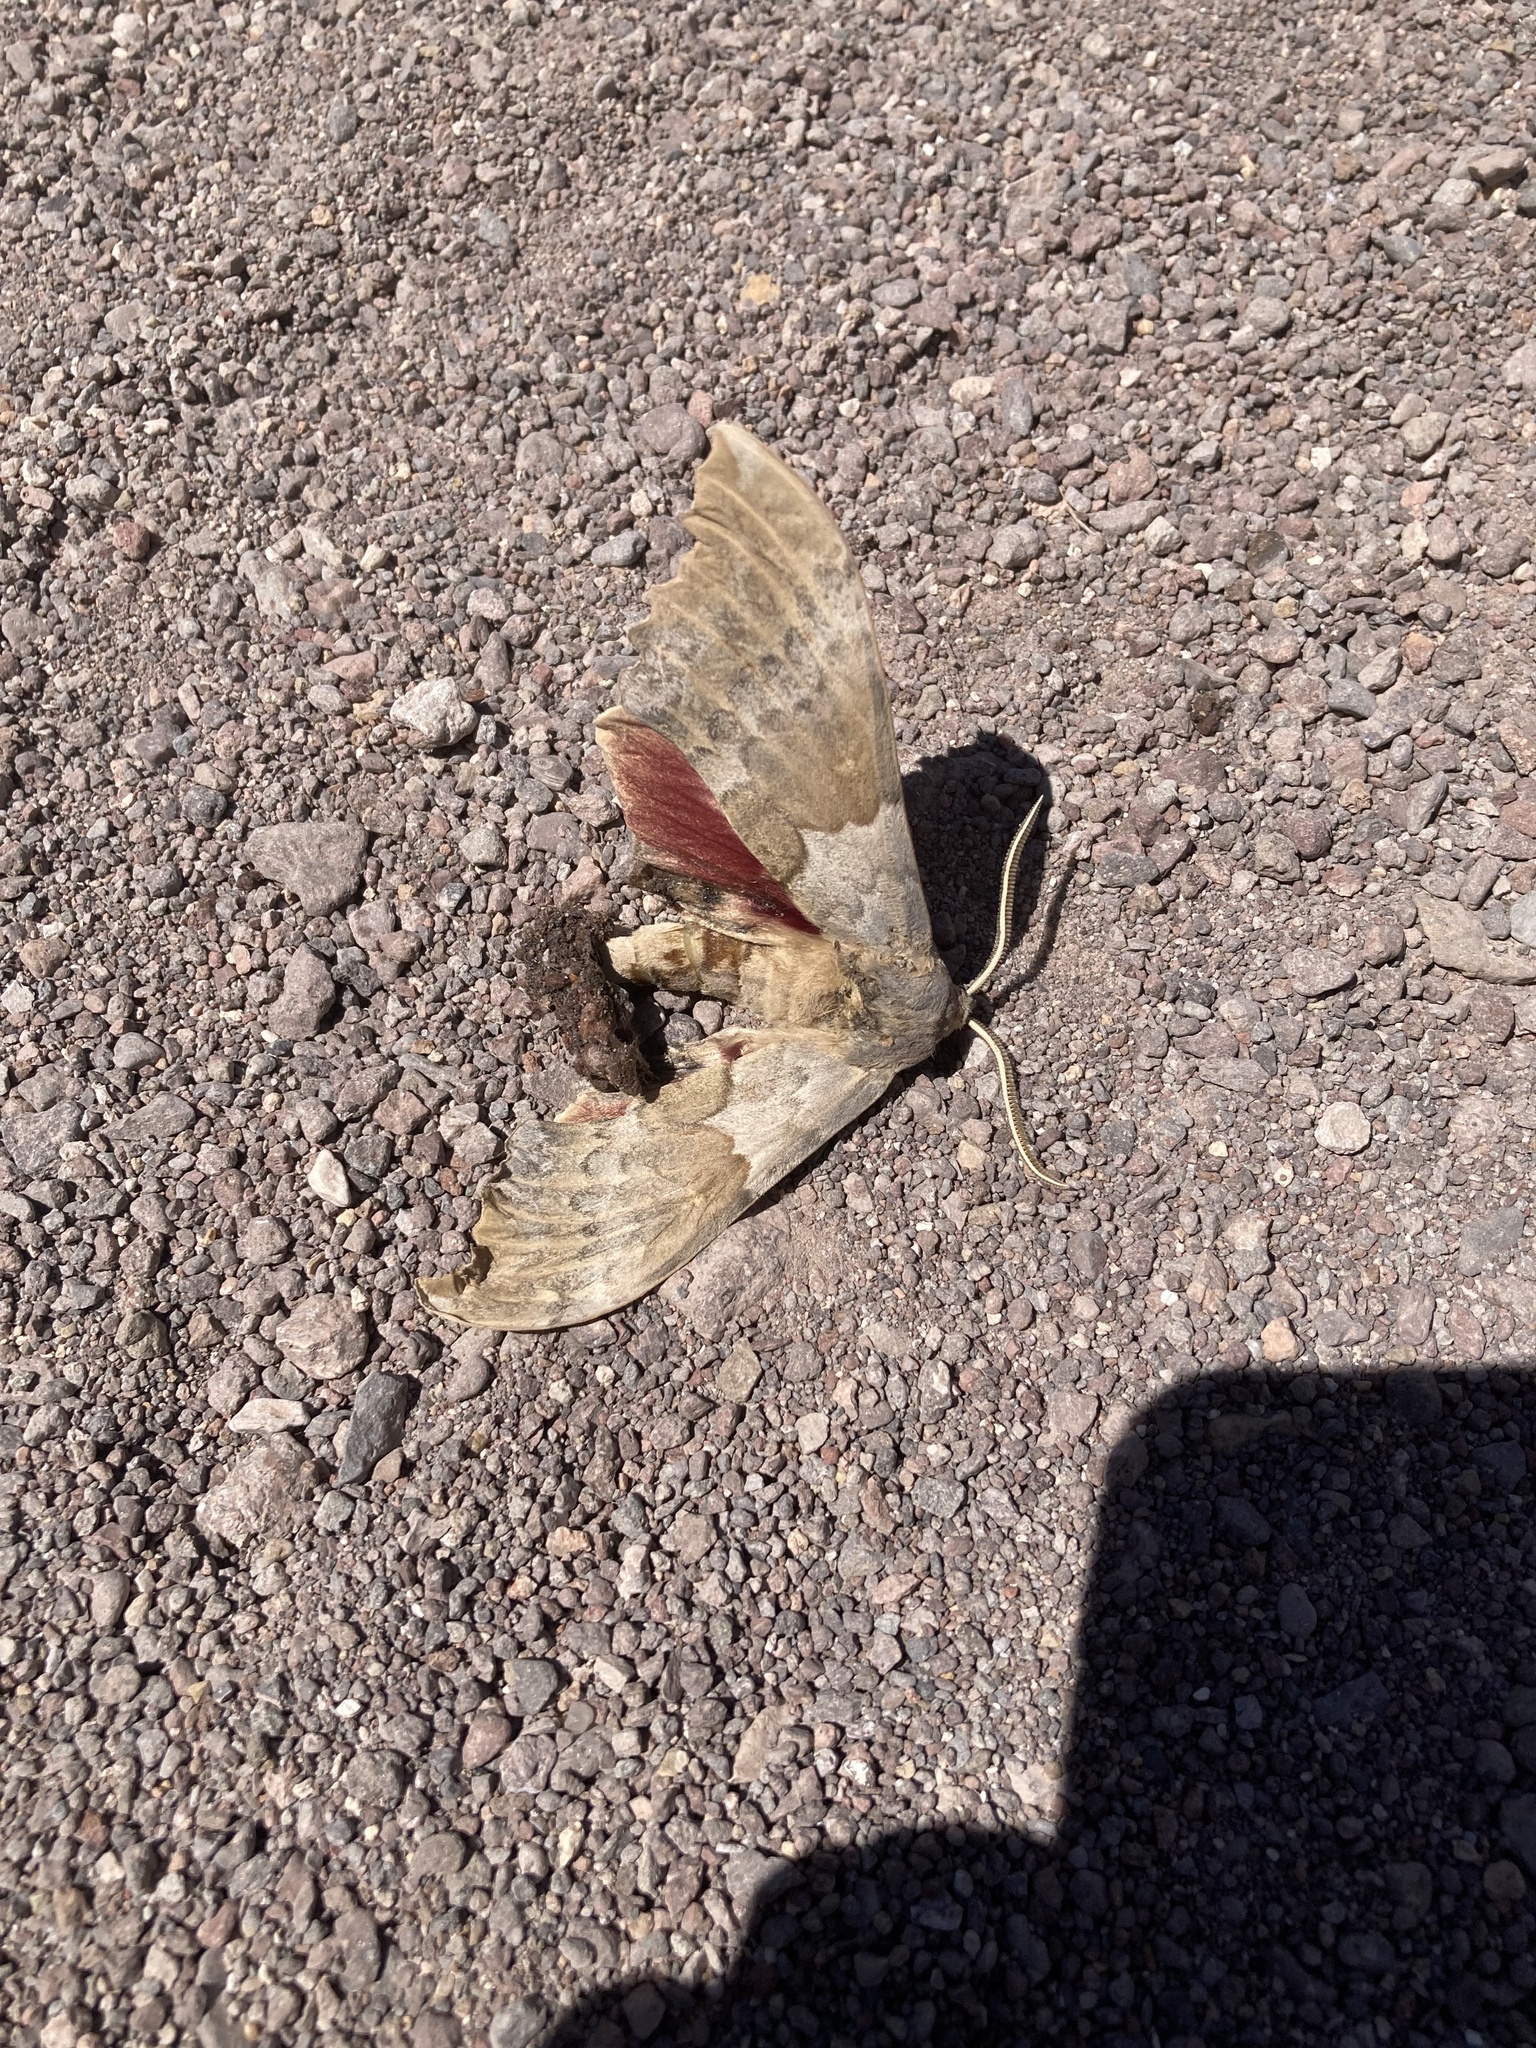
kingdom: Animalia
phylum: Arthropoda
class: Insecta
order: Lepidoptera
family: Sphingidae
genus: Pachysphinx
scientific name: Pachysphinx occidentalis
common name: Western poplar sphinx
